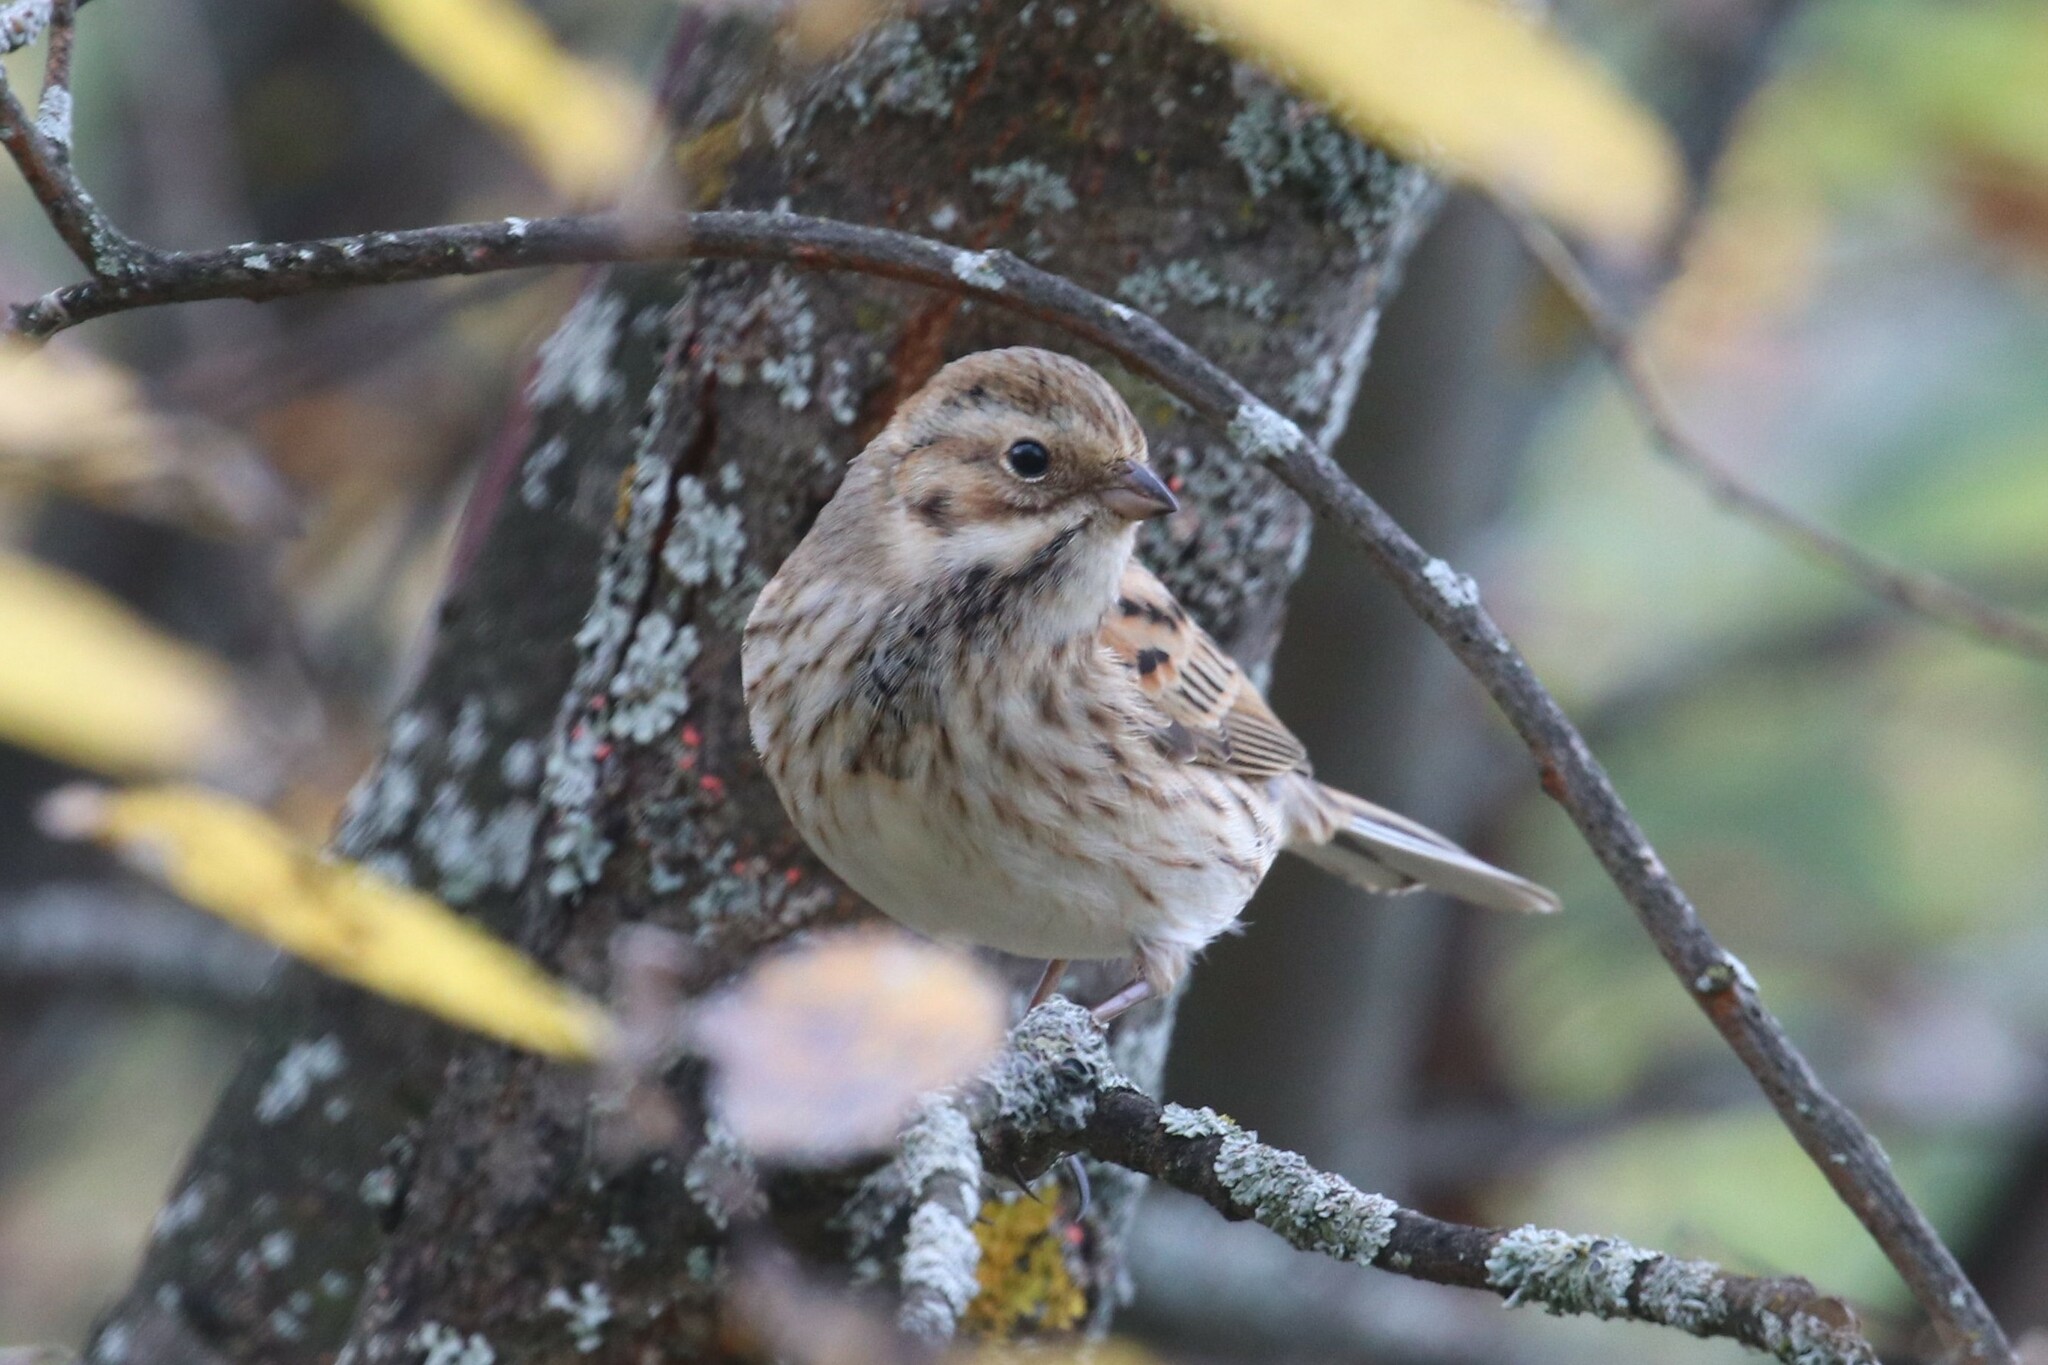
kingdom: Animalia
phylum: Chordata
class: Aves
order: Passeriformes
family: Emberizidae
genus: Emberiza
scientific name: Emberiza schoeniclus
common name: Reed bunting
